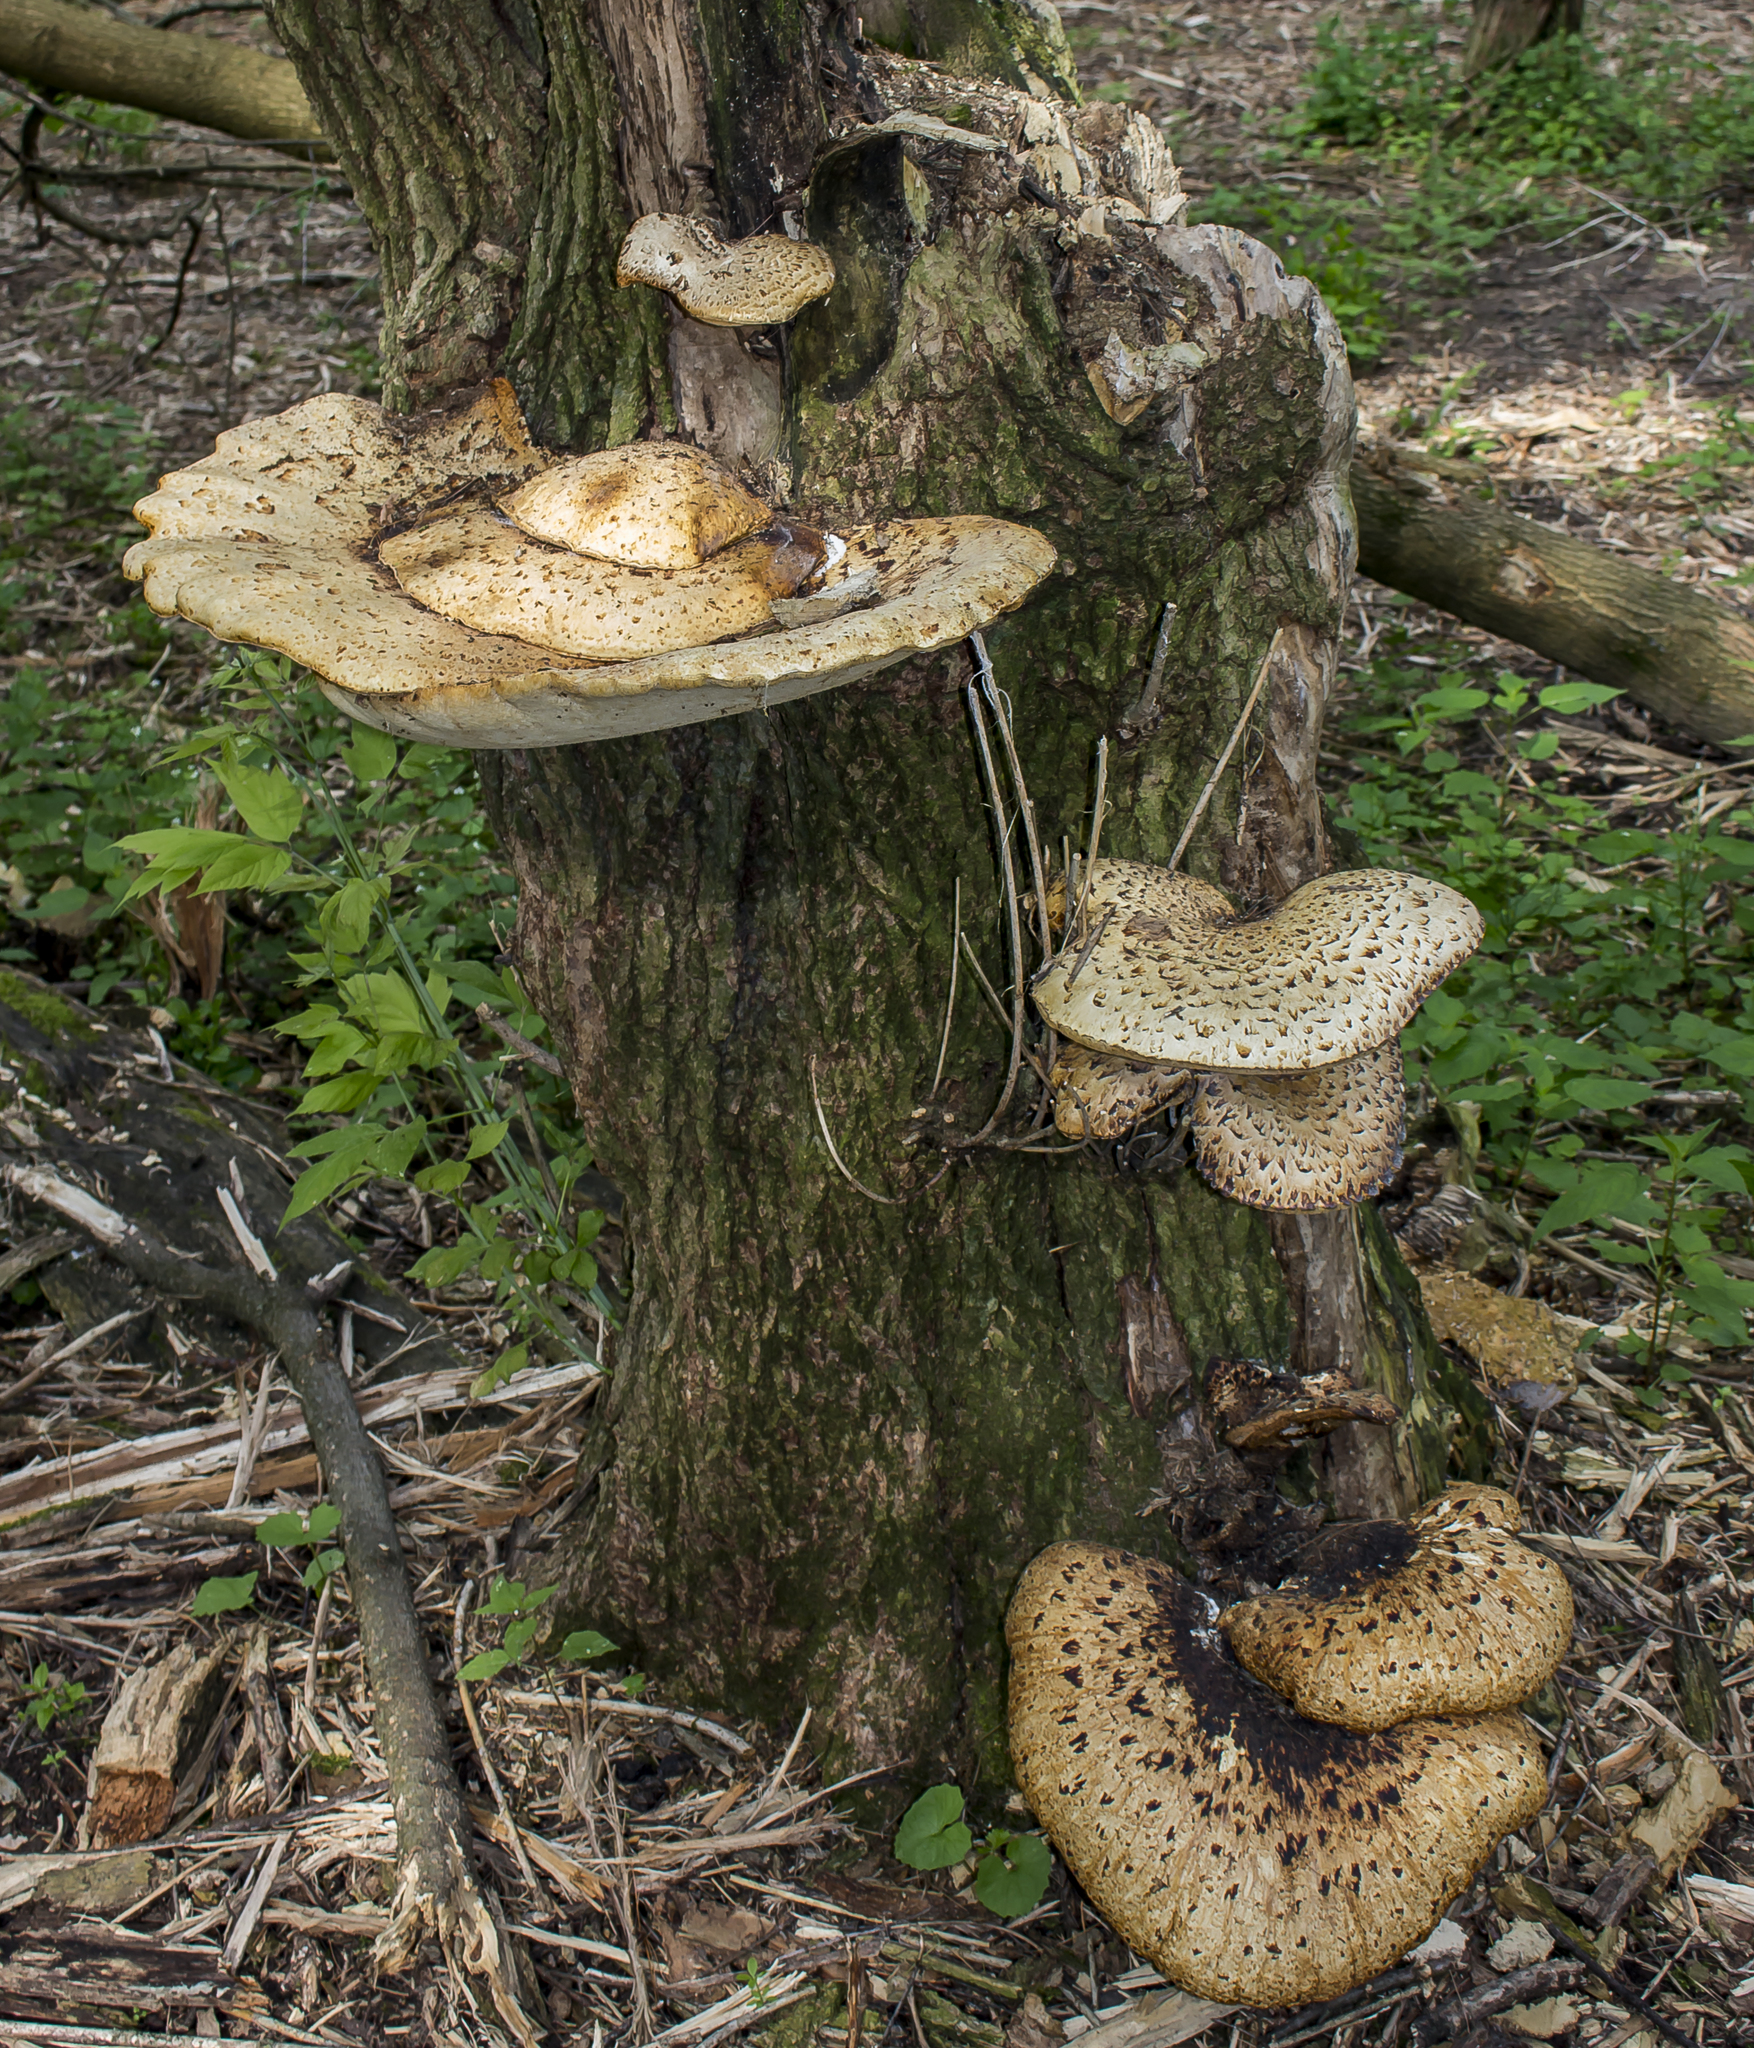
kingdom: Fungi
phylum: Basidiomycota
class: Agaricomycetes
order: Polyporales
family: Polyporaceae
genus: Cerioporus
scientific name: Cerioporus squamosus
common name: Dryad's saddle
